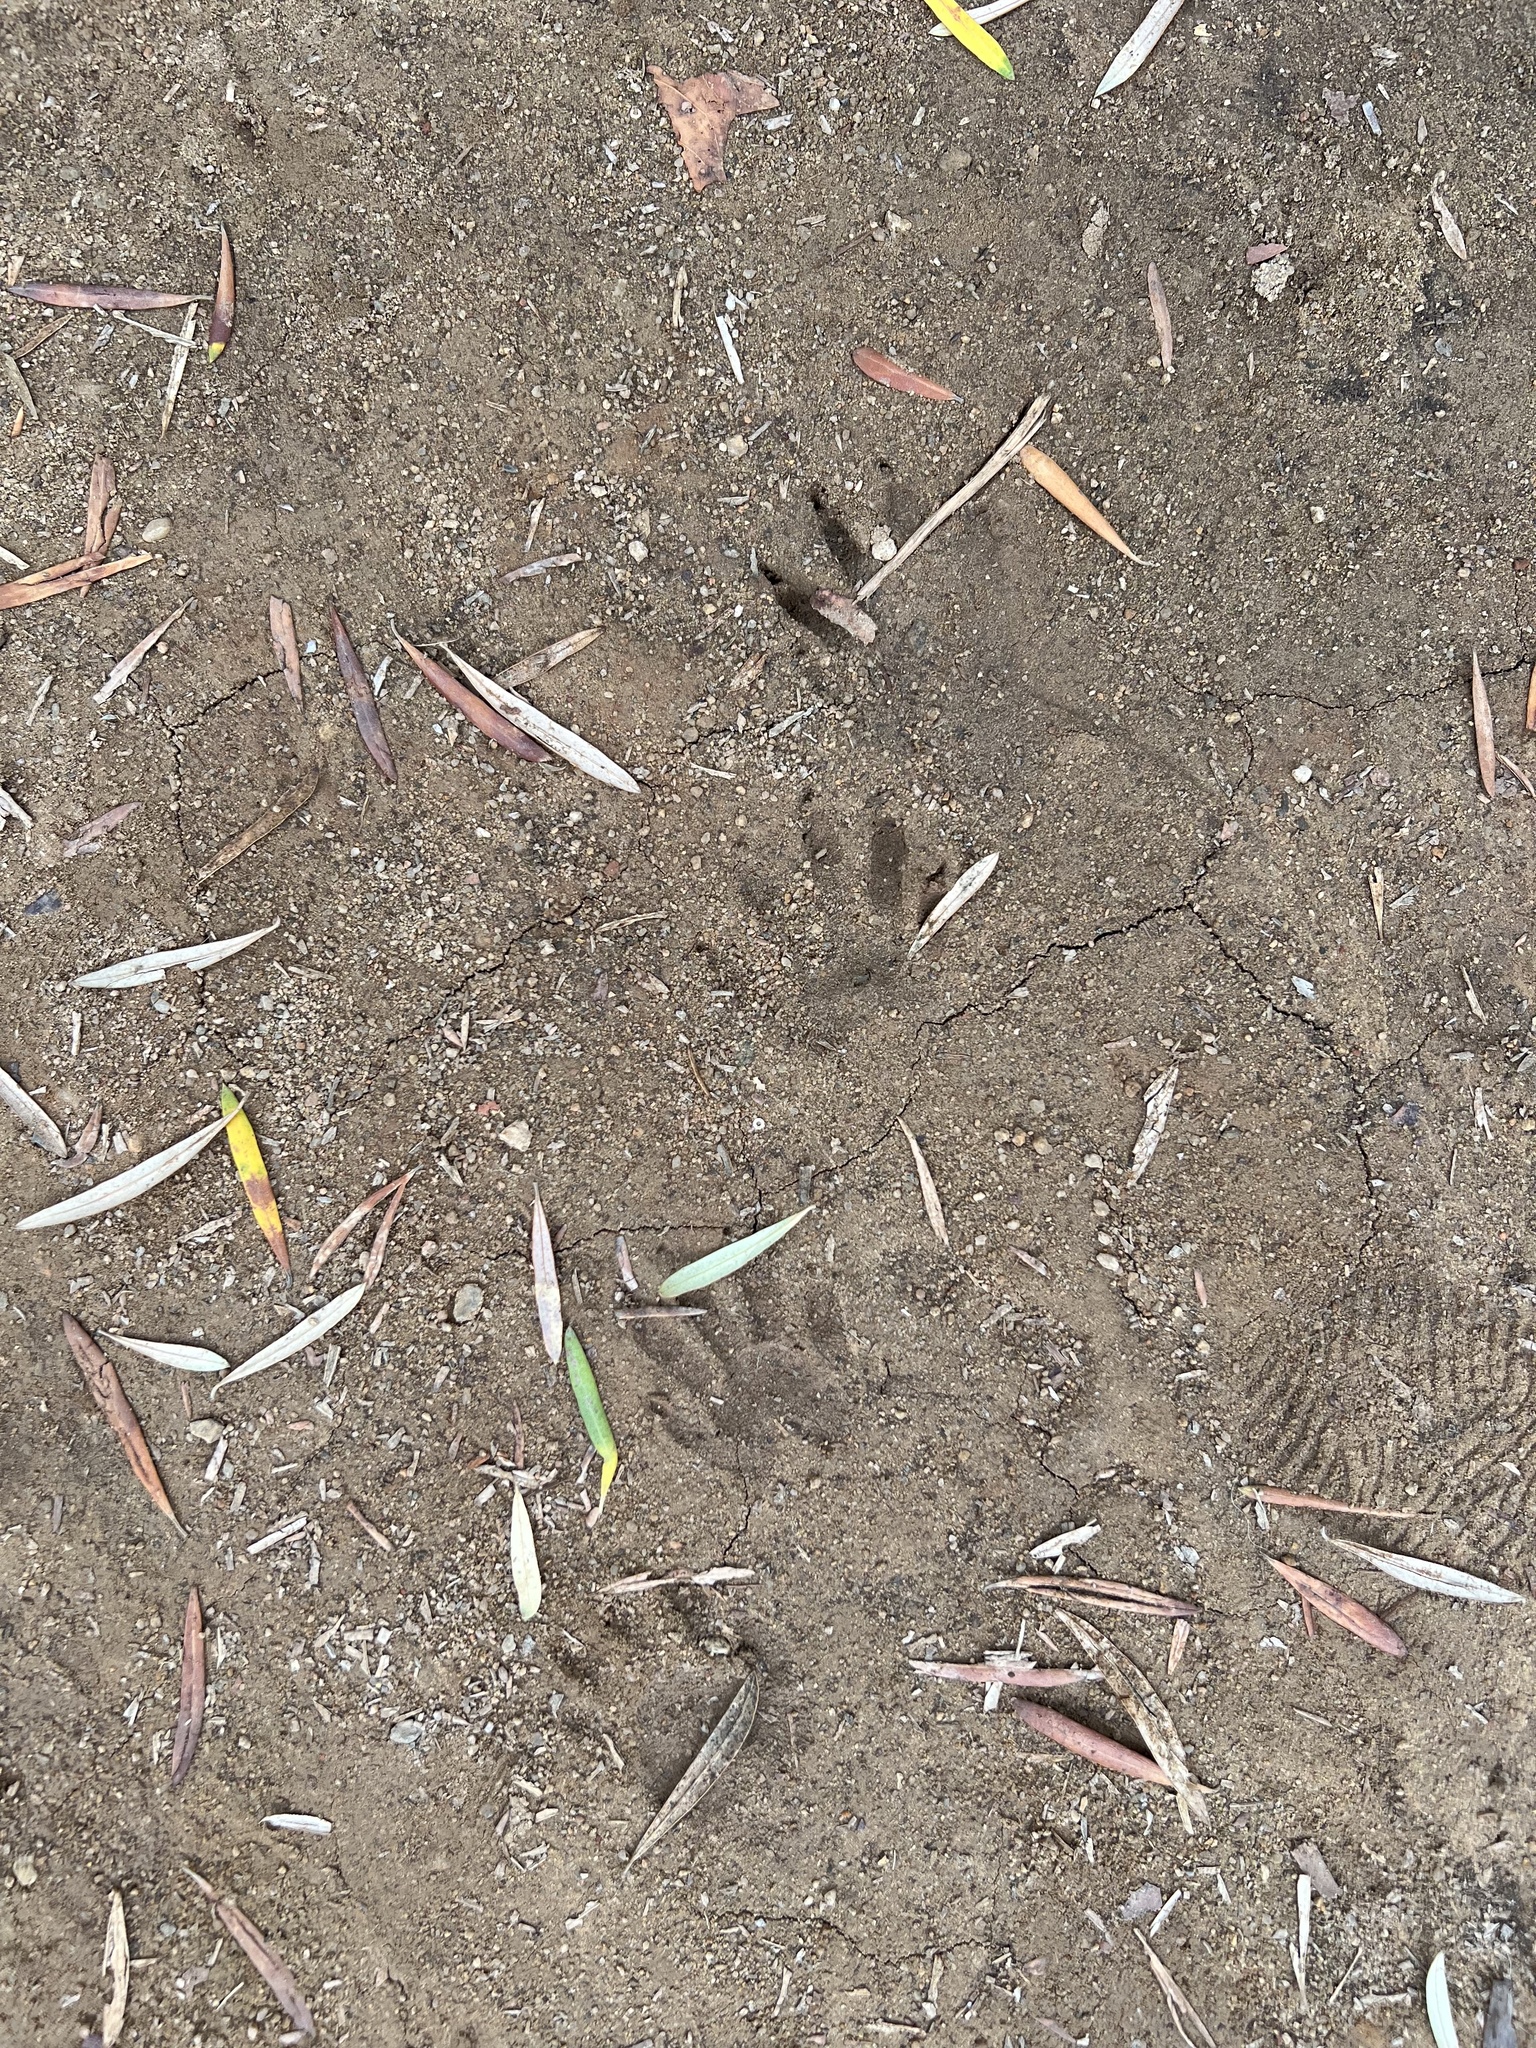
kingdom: Animalia
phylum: Chordata
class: Mammalia
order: Carnivora
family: Procyonidae
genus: Procyon
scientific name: Procyon lotor
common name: Raccoon
